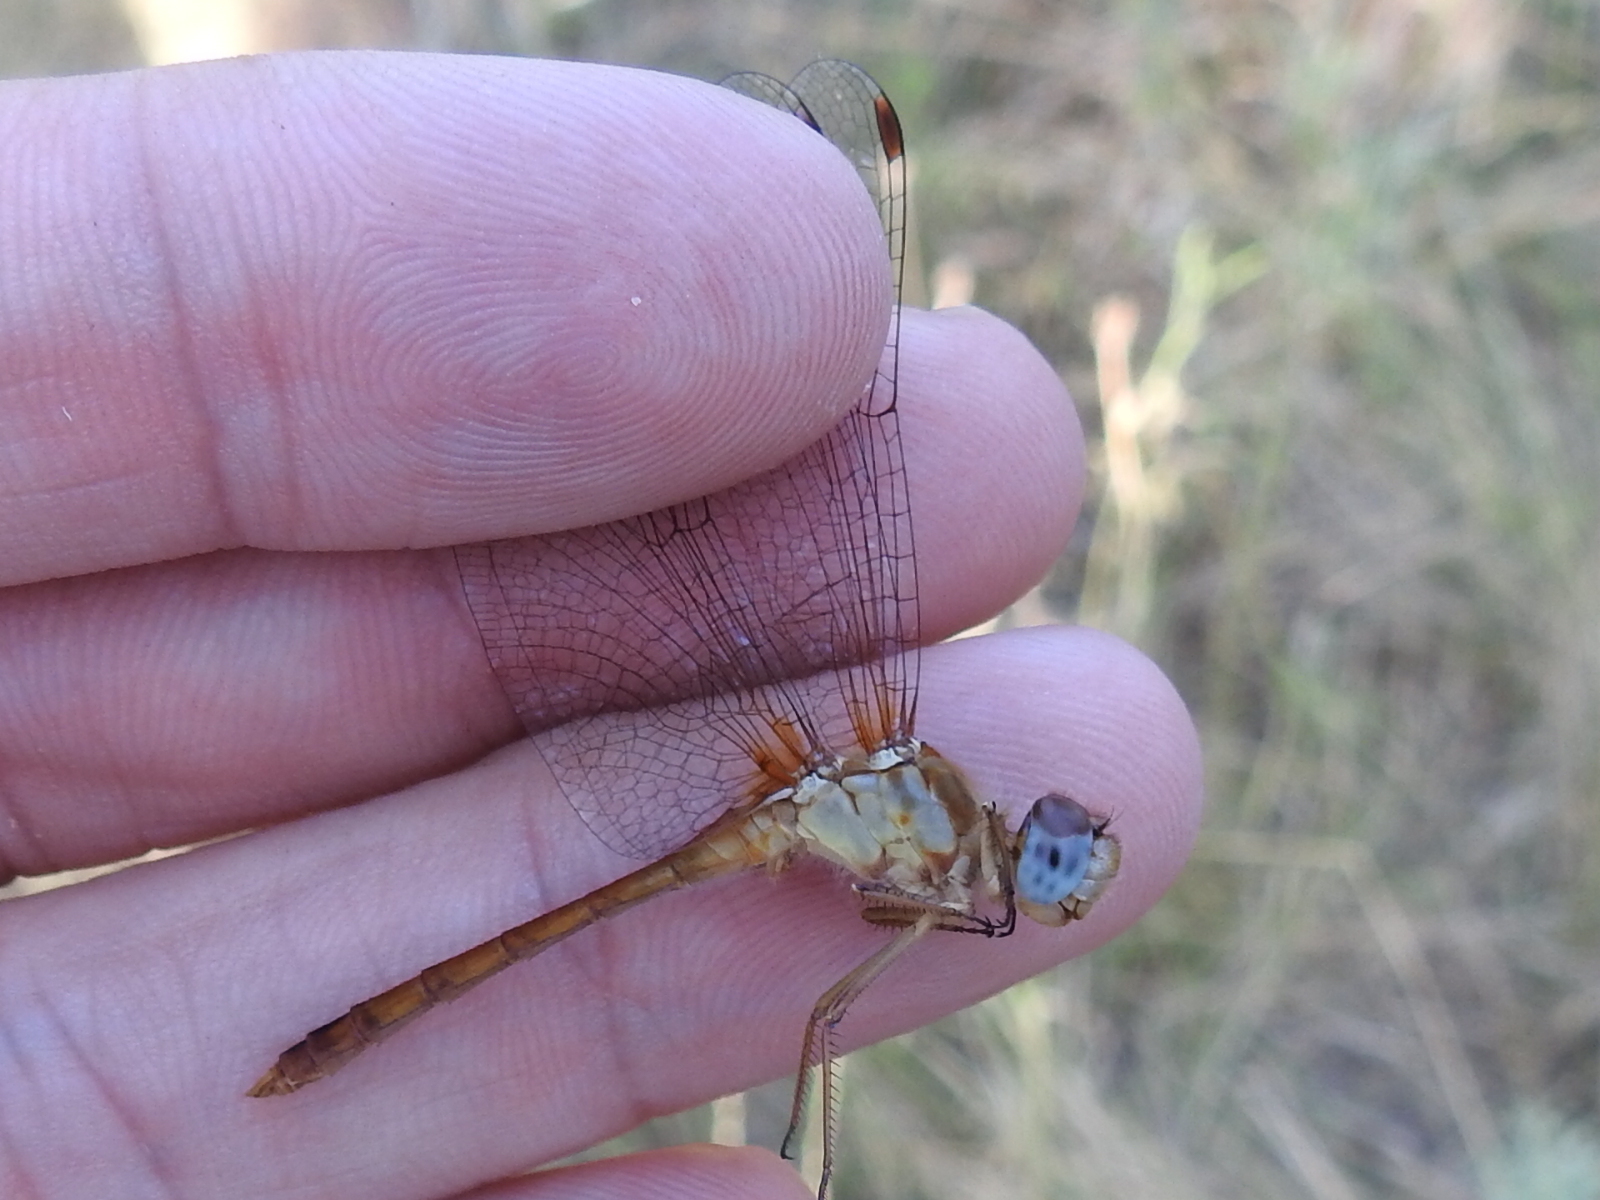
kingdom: Animalia
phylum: Arthropoda
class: Insecta
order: Odonata
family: Libellulidae
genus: Sympetrum
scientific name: Sympetrum vicinum
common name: Autumn meadowhawk
